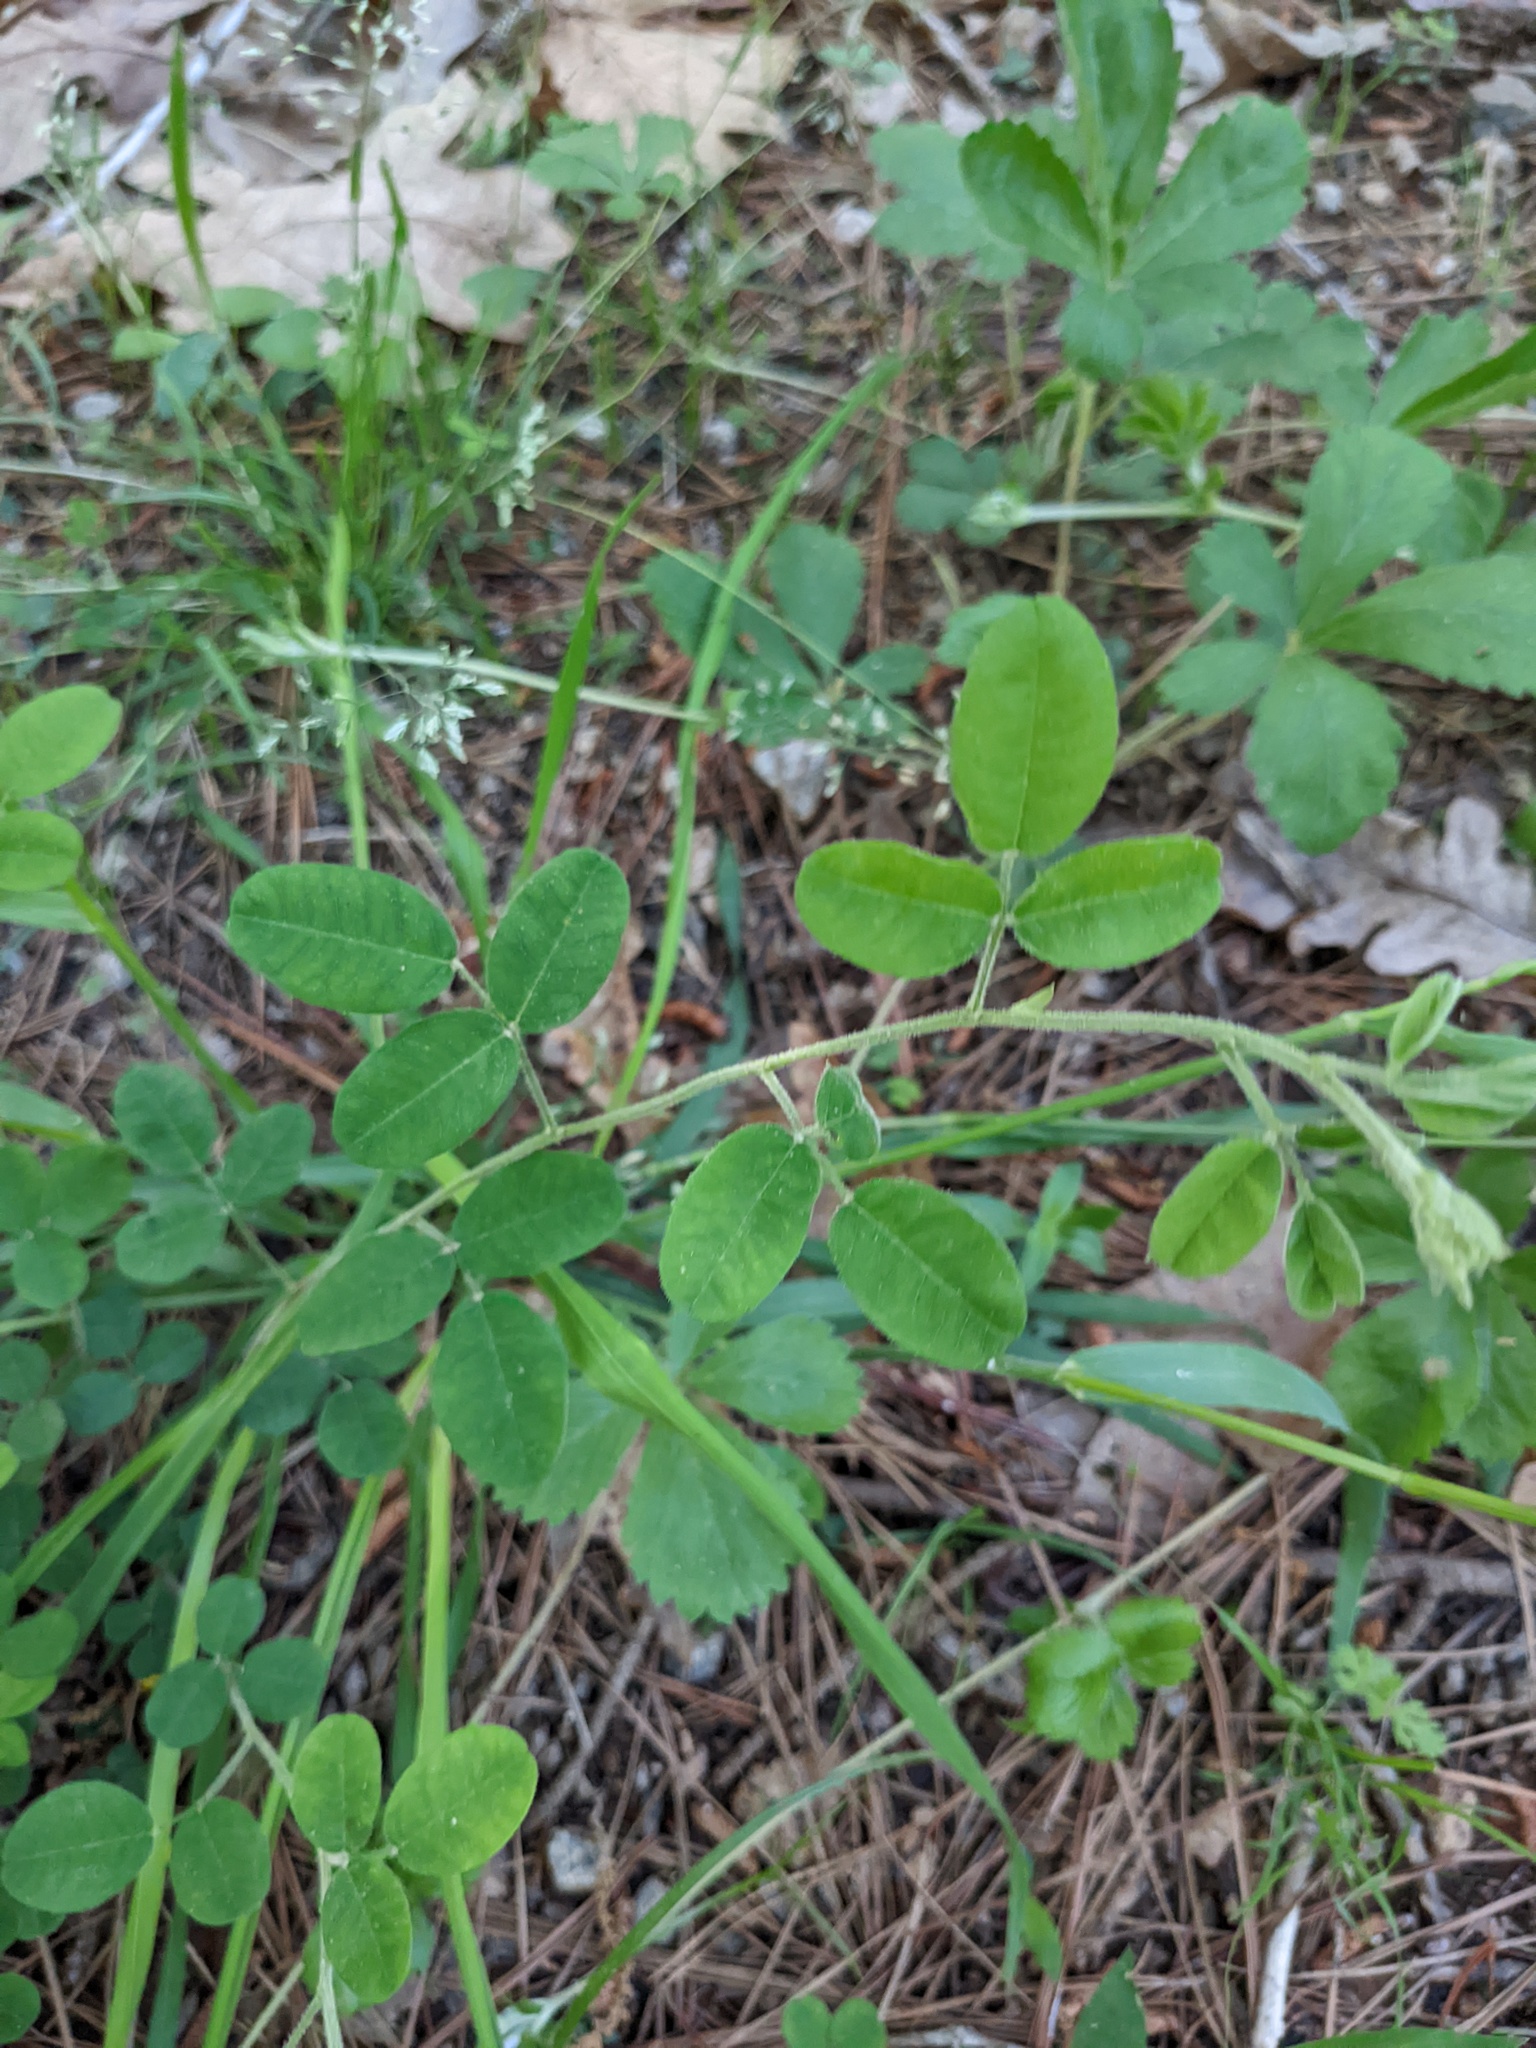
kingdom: Plantae
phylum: Tracheophyta
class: Magnoliopsida
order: Fabales
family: Fabaceae
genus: Lespedeza
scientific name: Lespedeza procumbens
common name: Downy trailing bush-clover
